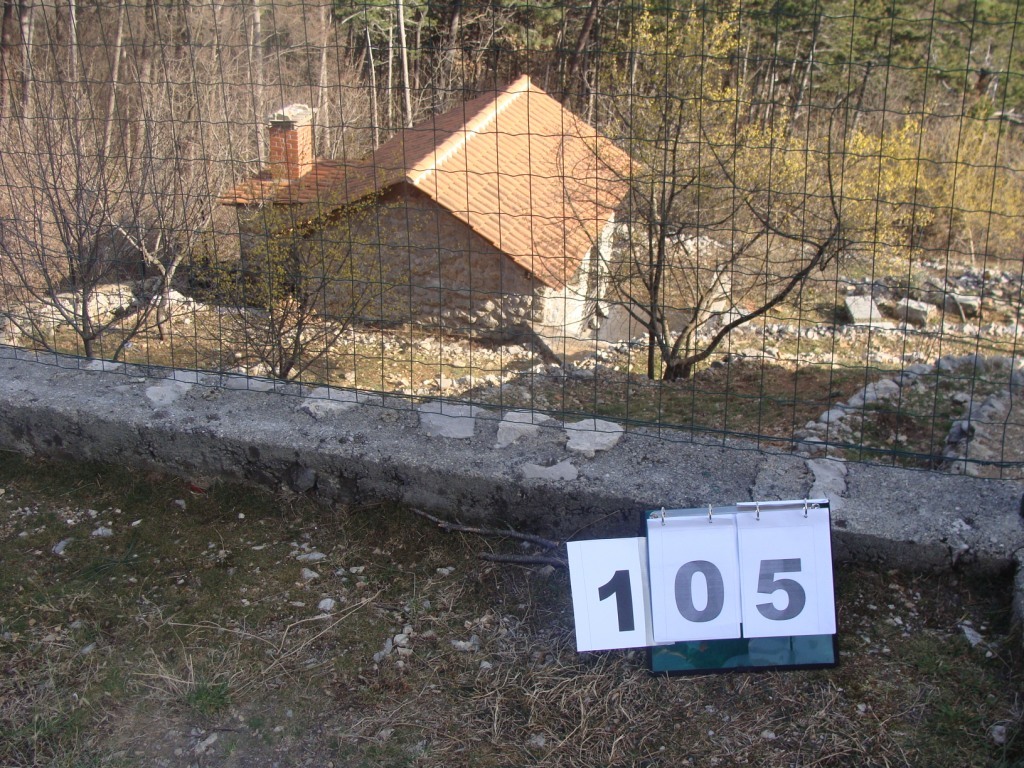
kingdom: Plantae
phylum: Tracheophyta
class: Magnoliopsida
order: Cornales
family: Cornaceae
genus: Cornus
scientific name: Cornus mas
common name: Cornelian-cherry
